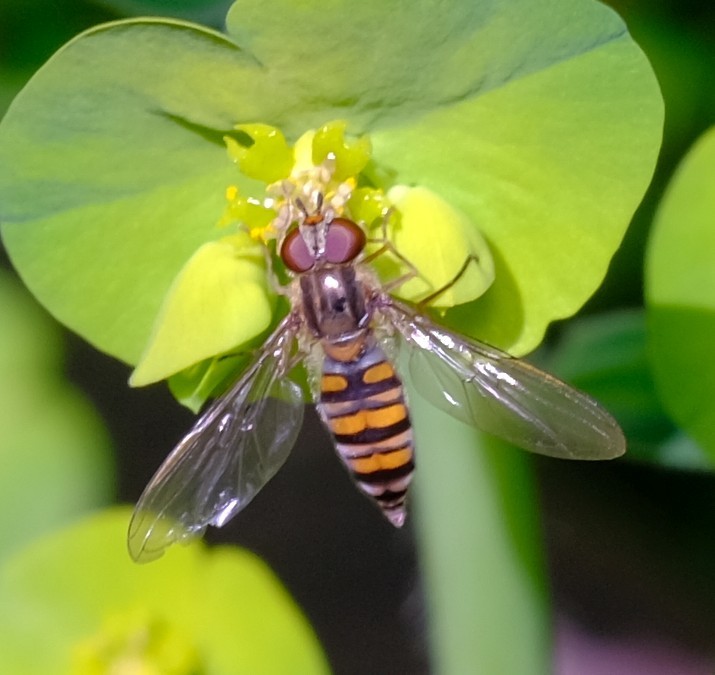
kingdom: Animalia
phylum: Arthropoda
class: Insecta
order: Diptera
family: Syrphidae
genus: Episyrphus
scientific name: Episyrphus balteatus
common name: Marmalade hoverfly
